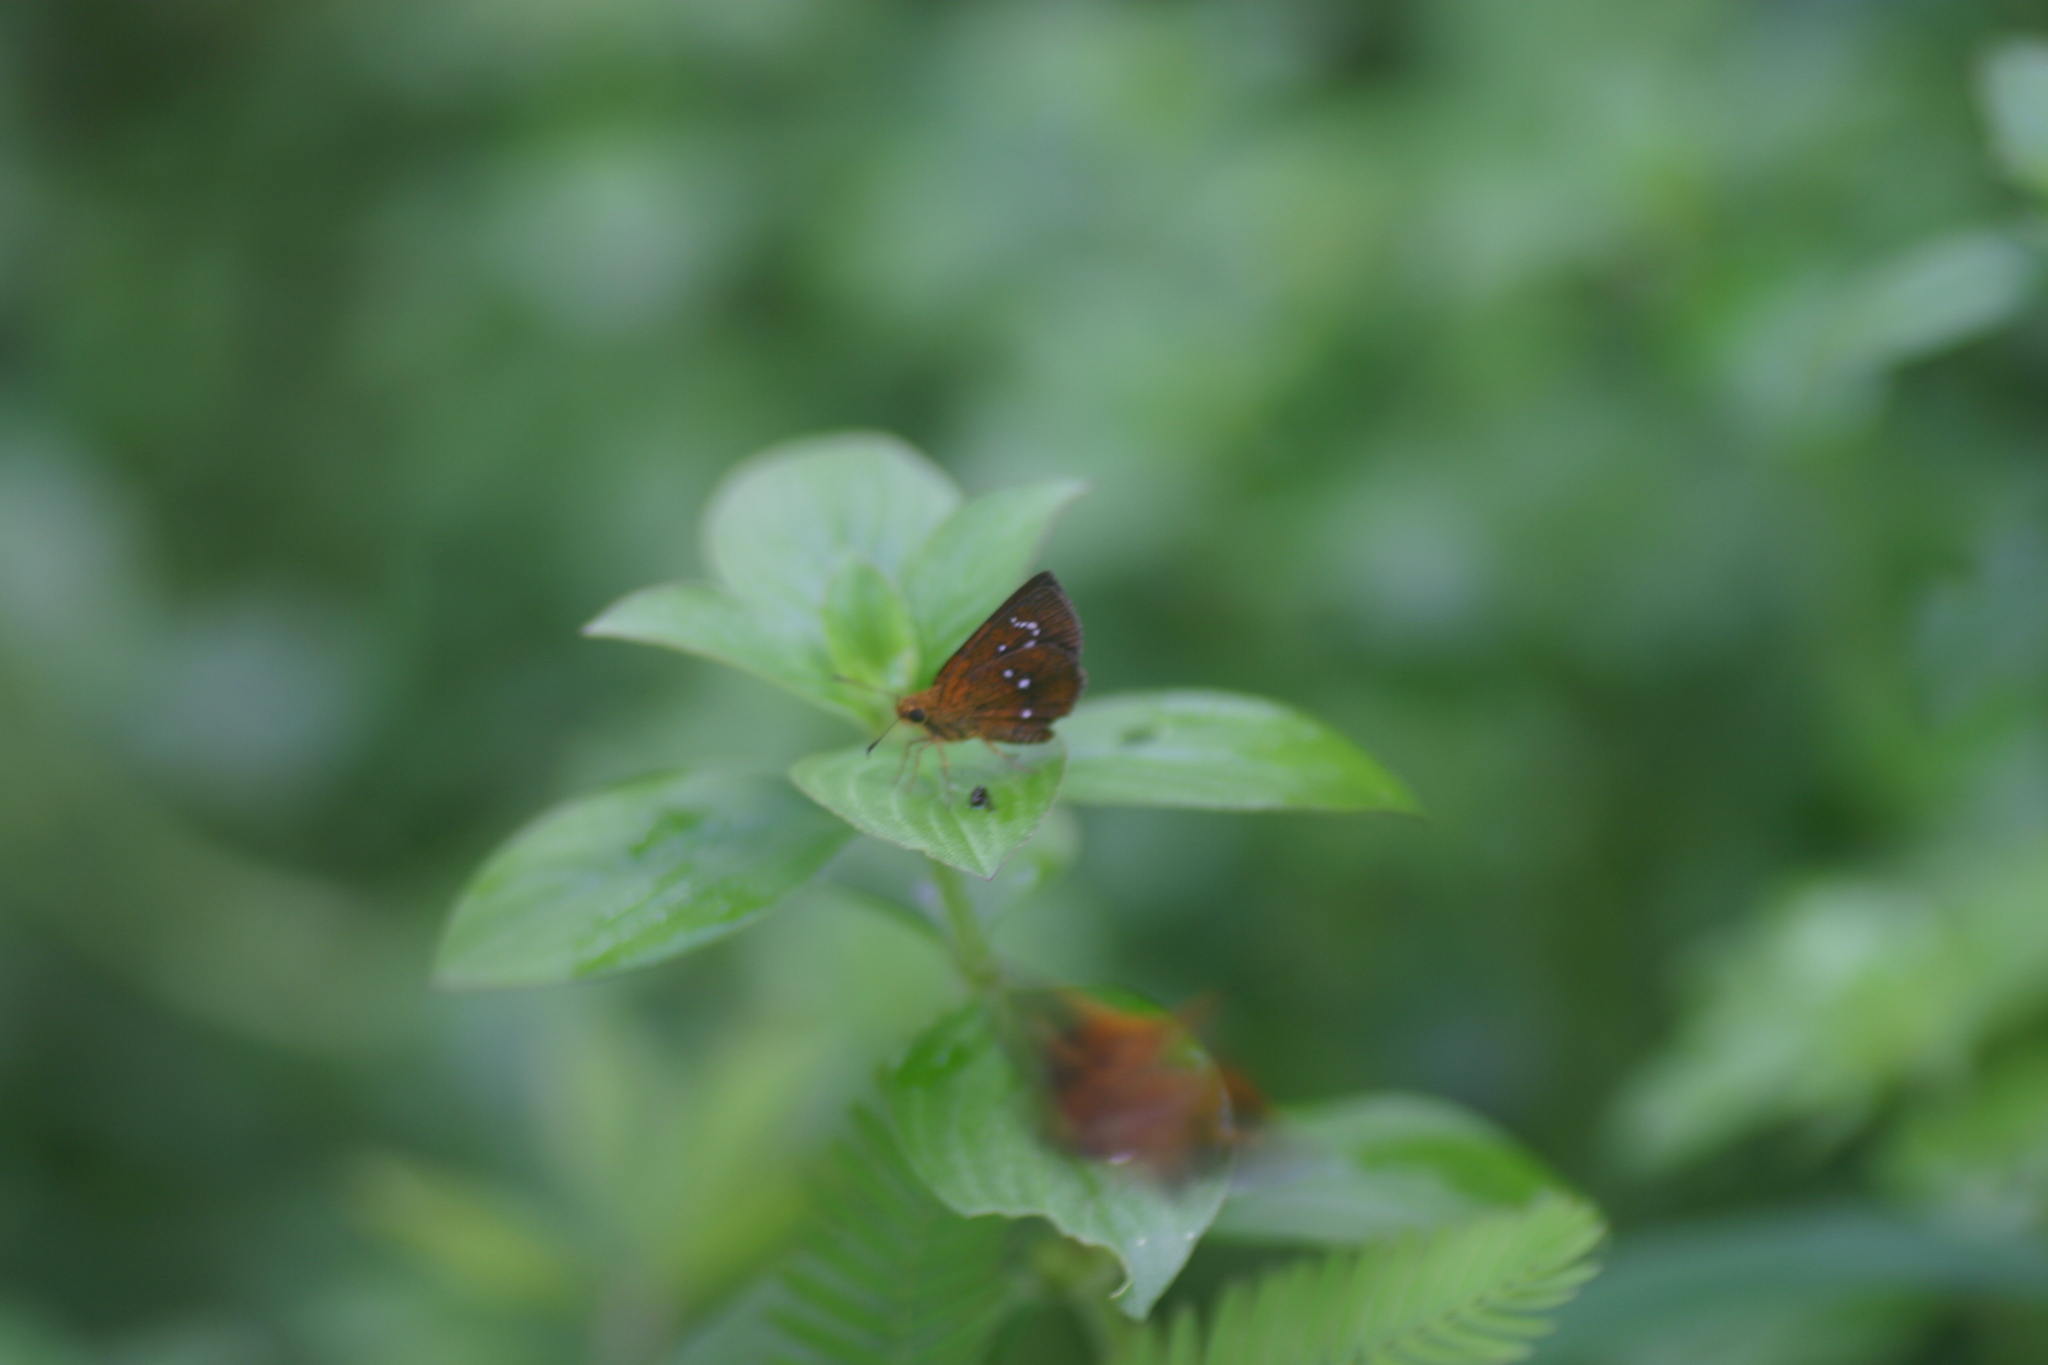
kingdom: Animalia
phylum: Arthropoda
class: Insecta
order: Lepidoptera
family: Hesperiidae
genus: Iambrix
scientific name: Iambrix salsala
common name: Chestnut bob
